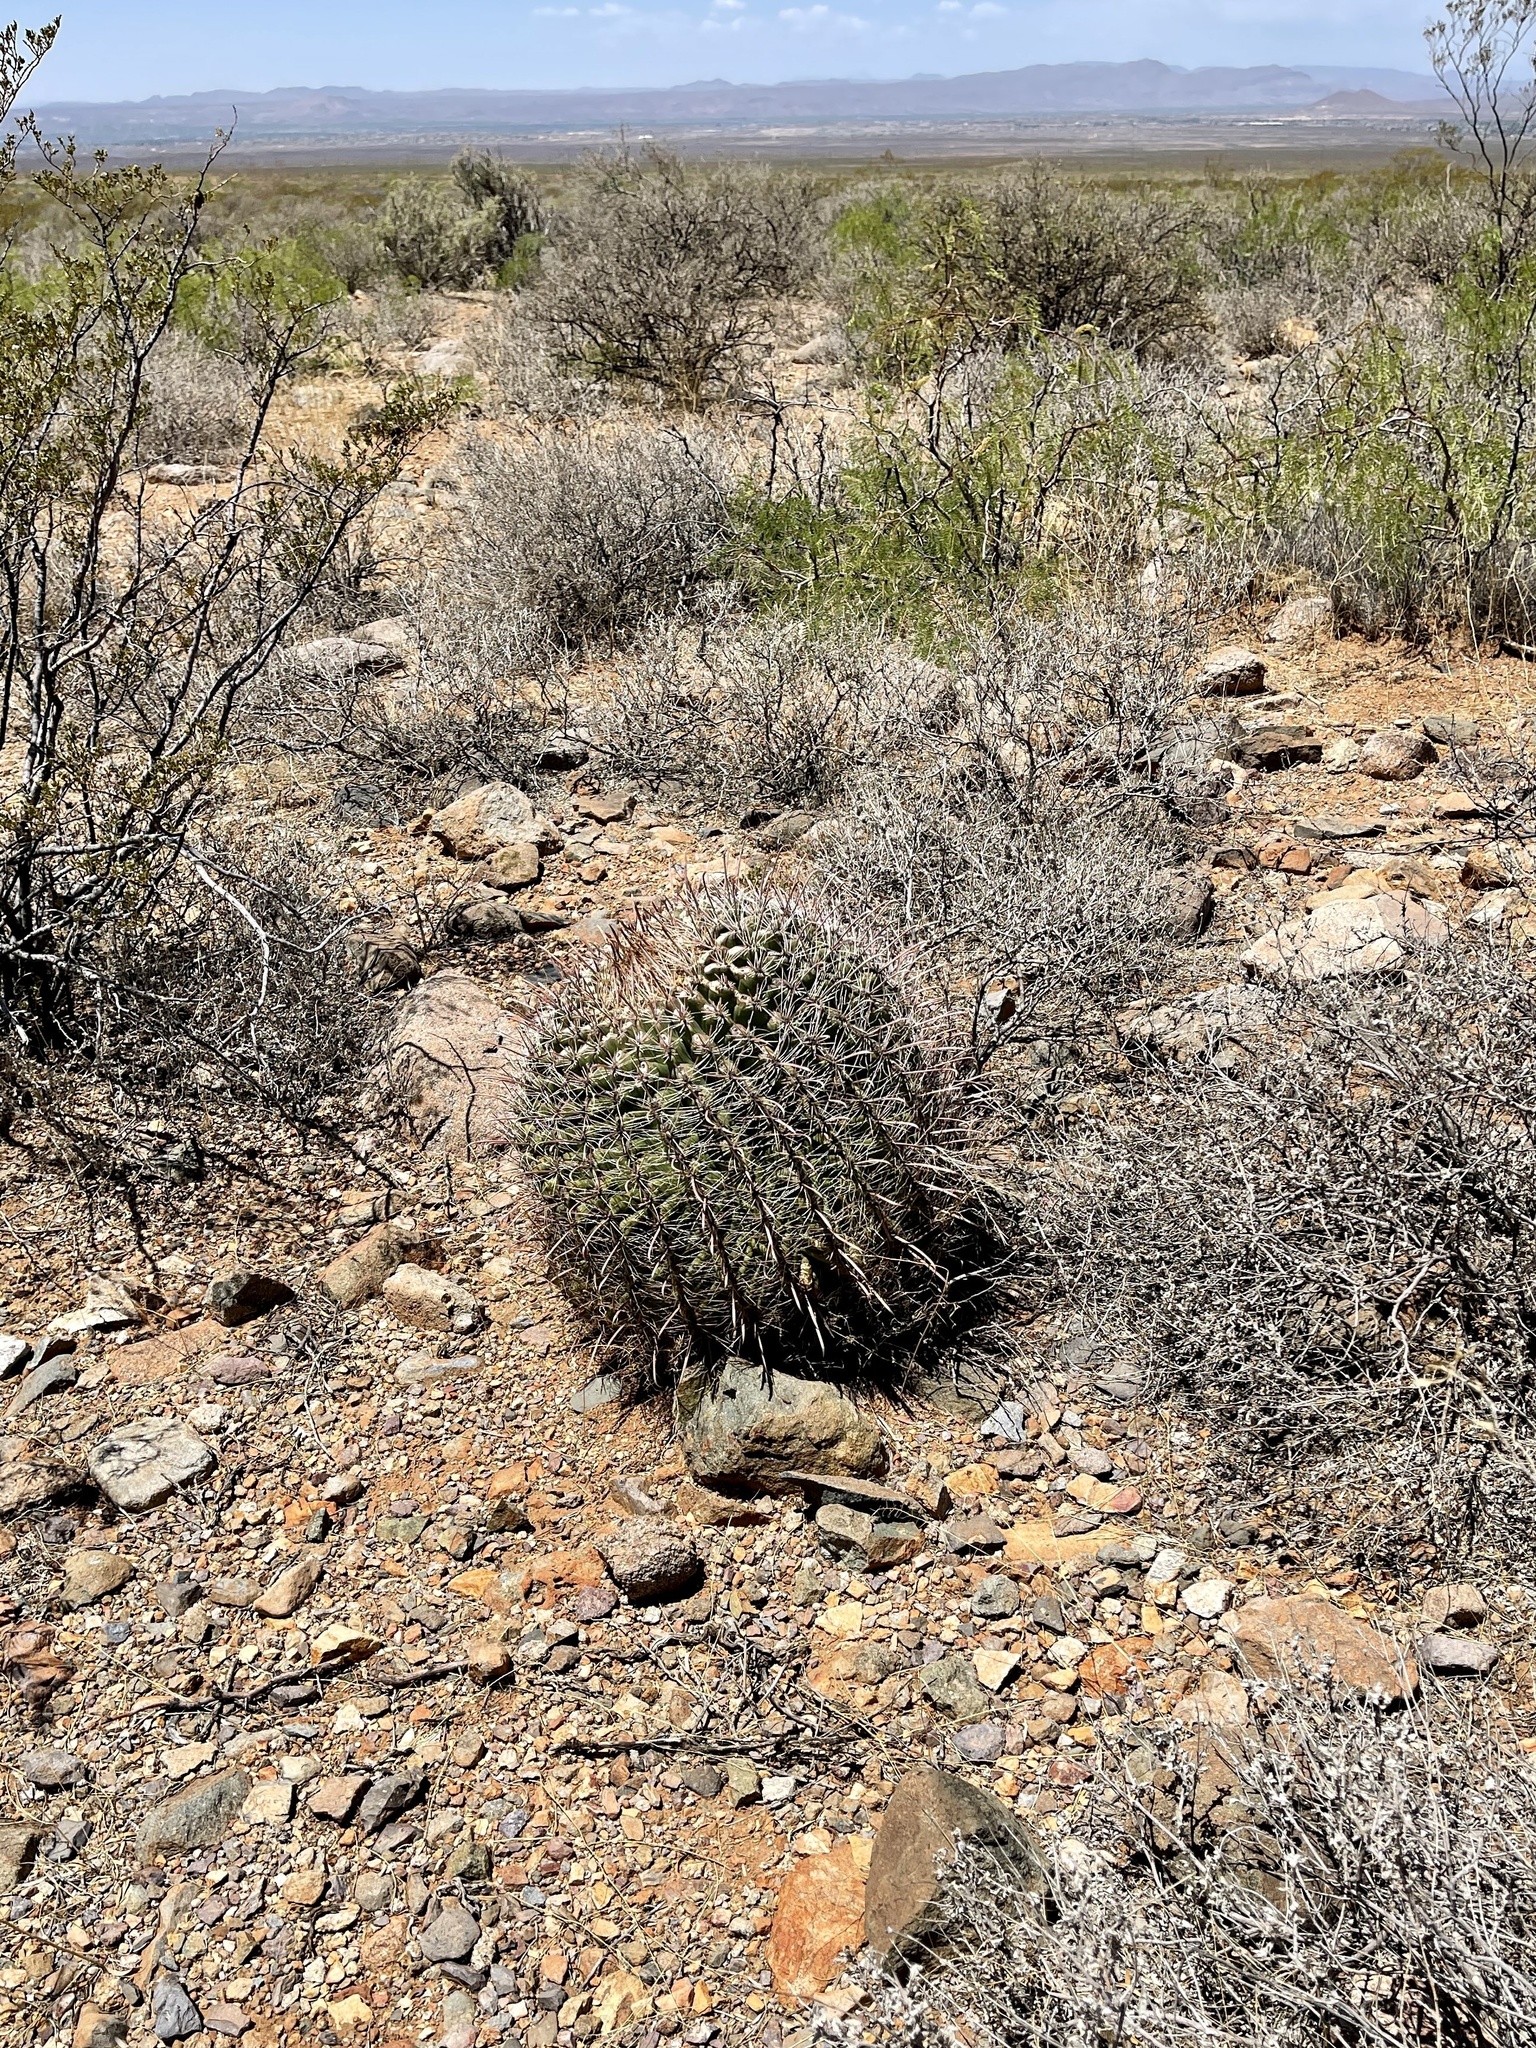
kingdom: Plantae
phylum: Tracheophyta
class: Magnoliopsida
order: Caryophyllales
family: Cactaceae
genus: Ferocactus
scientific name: Ferocactus wislizeni
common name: Candy barrel cactus
